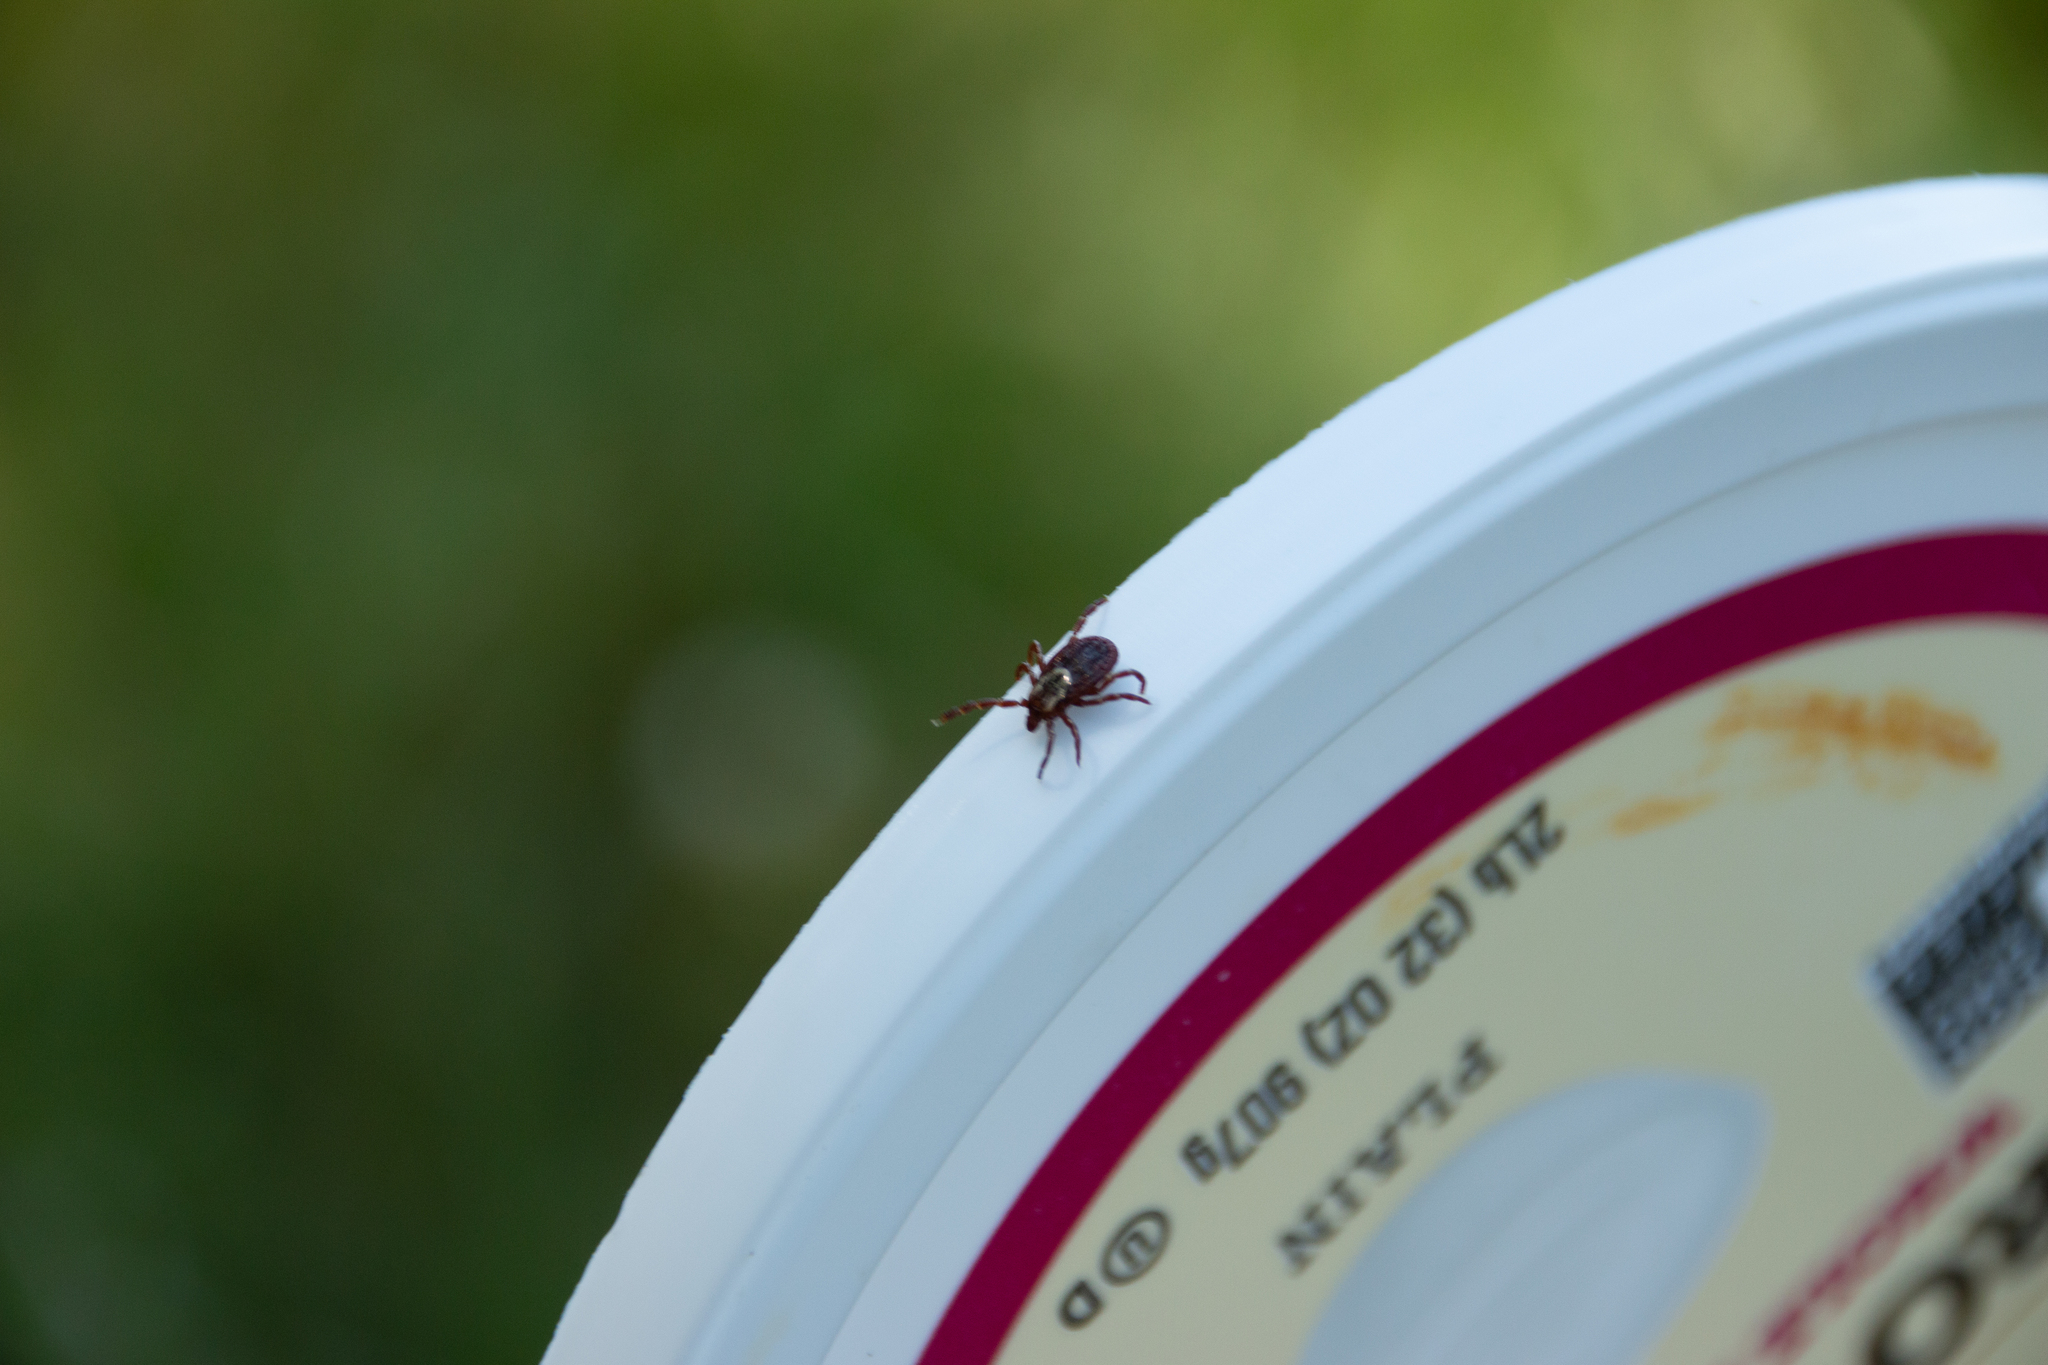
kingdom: Animalia
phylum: Arthropoda
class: Arachnida
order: Ixodida
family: Ixodidae
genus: Dermacentor
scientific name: Dermacentor variabilis
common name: American dog tick
